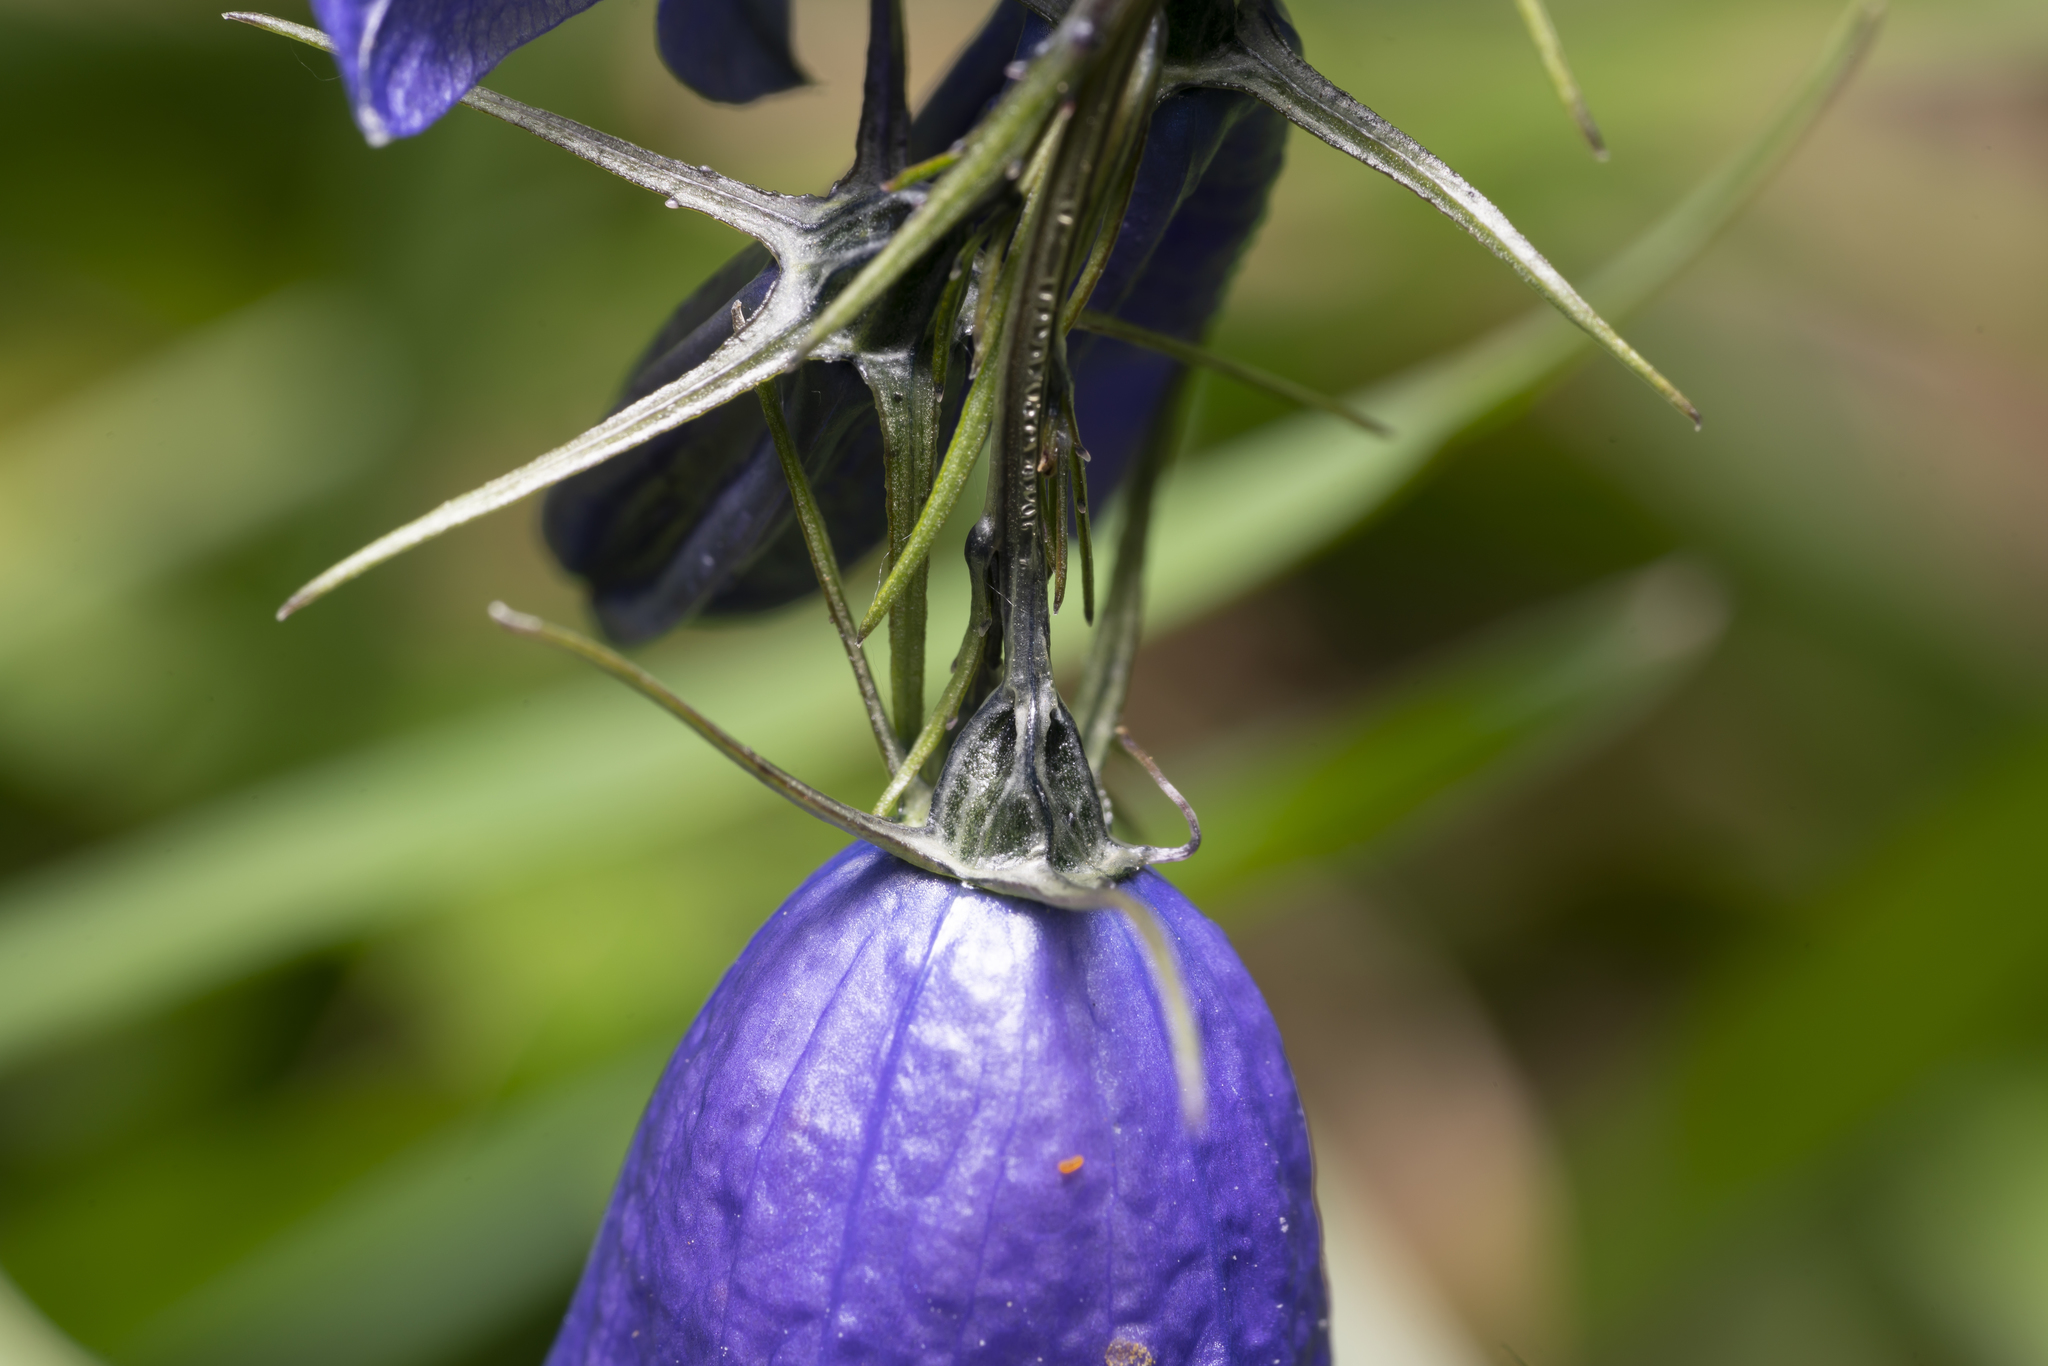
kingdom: Plantae
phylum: Tracheophyta
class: Magnoliopsida
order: Asterales
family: Campanulaceae
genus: Campanula
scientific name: Campanula rhomboidalis
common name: Broad-leaved harebell
